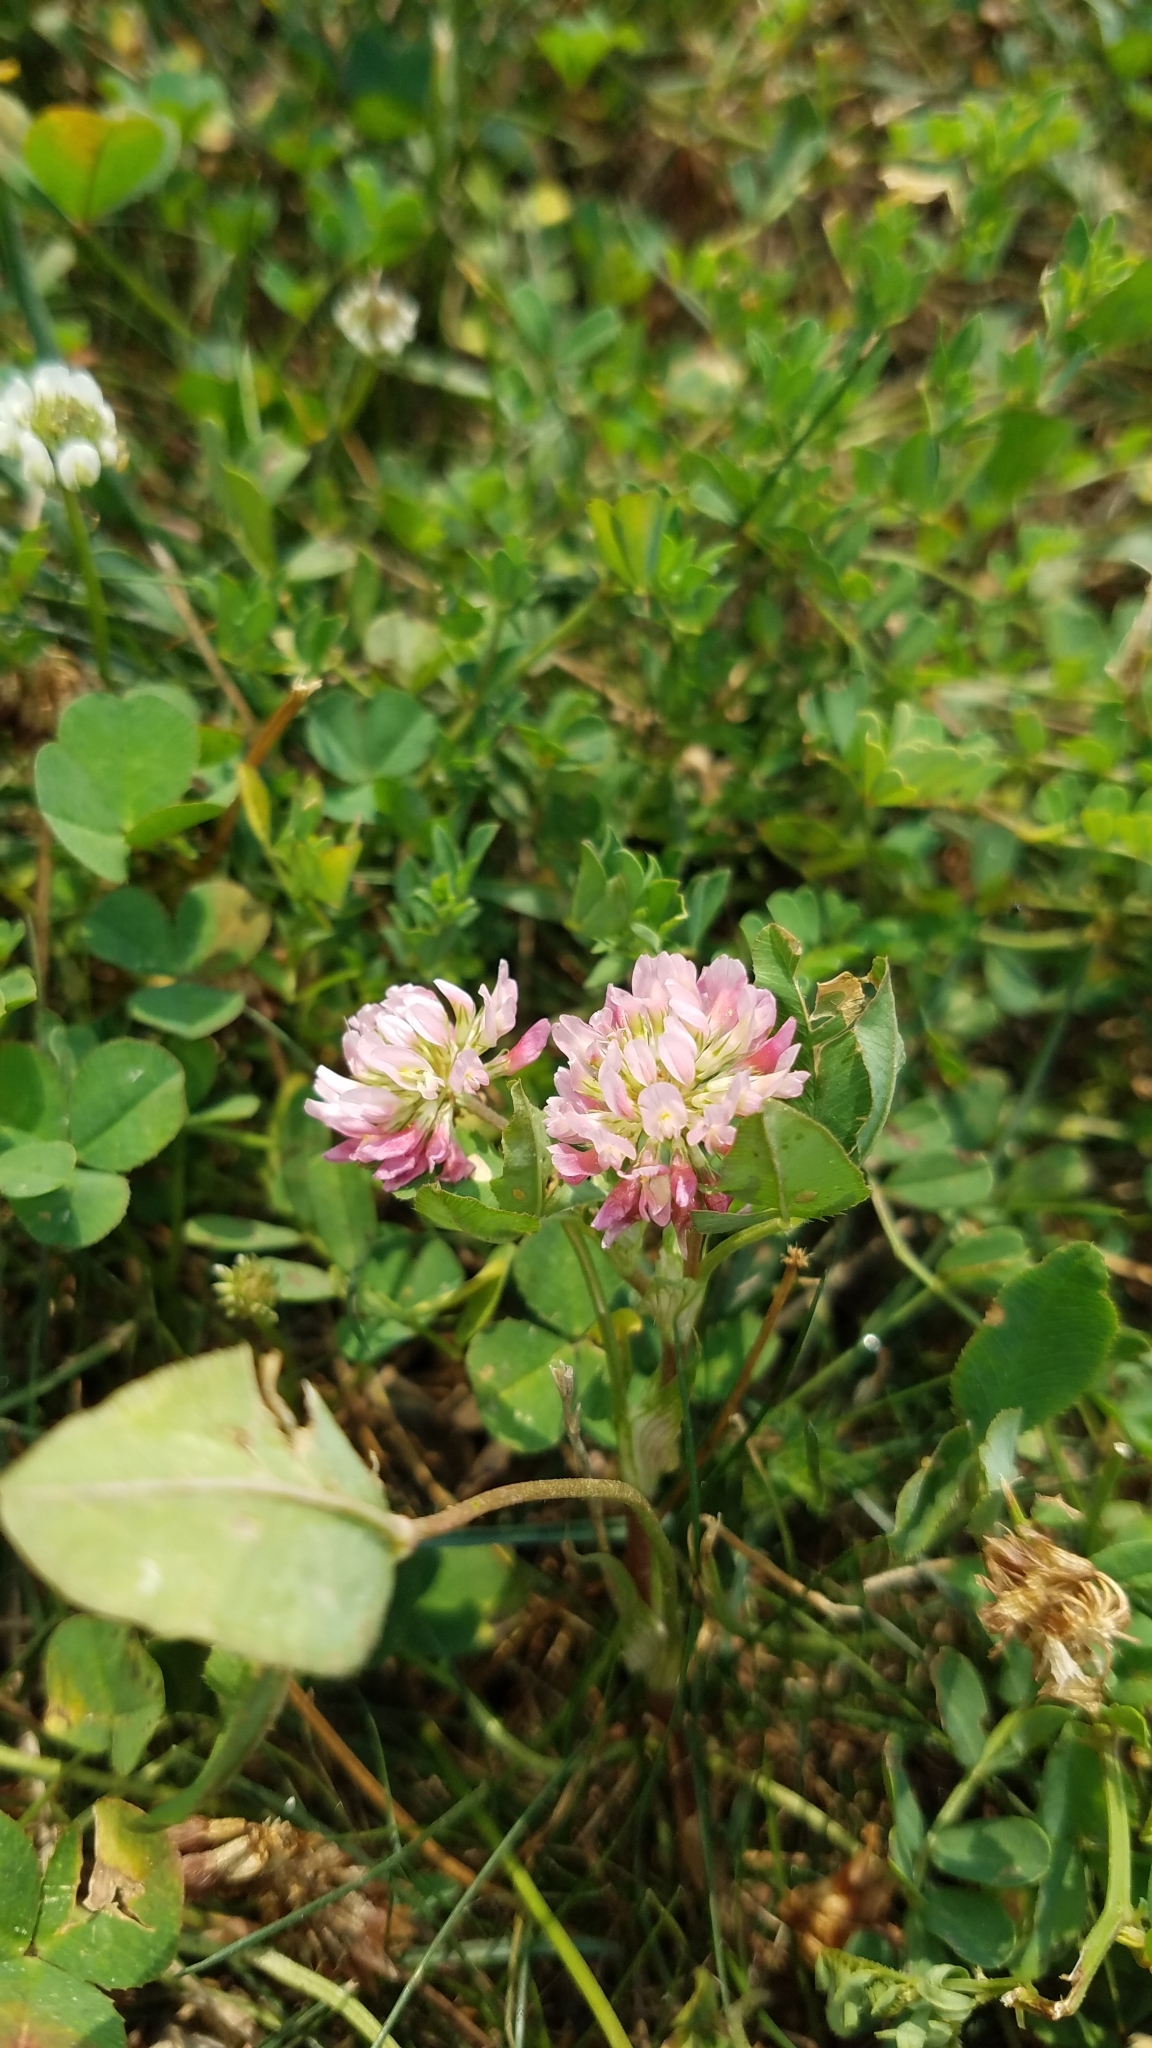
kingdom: Plantae
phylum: Tracheophyta
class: Magnoliopsida
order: Fabales
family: Fabaceae
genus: Trifolium
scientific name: Trifolium hybridum
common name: Alsike clover
